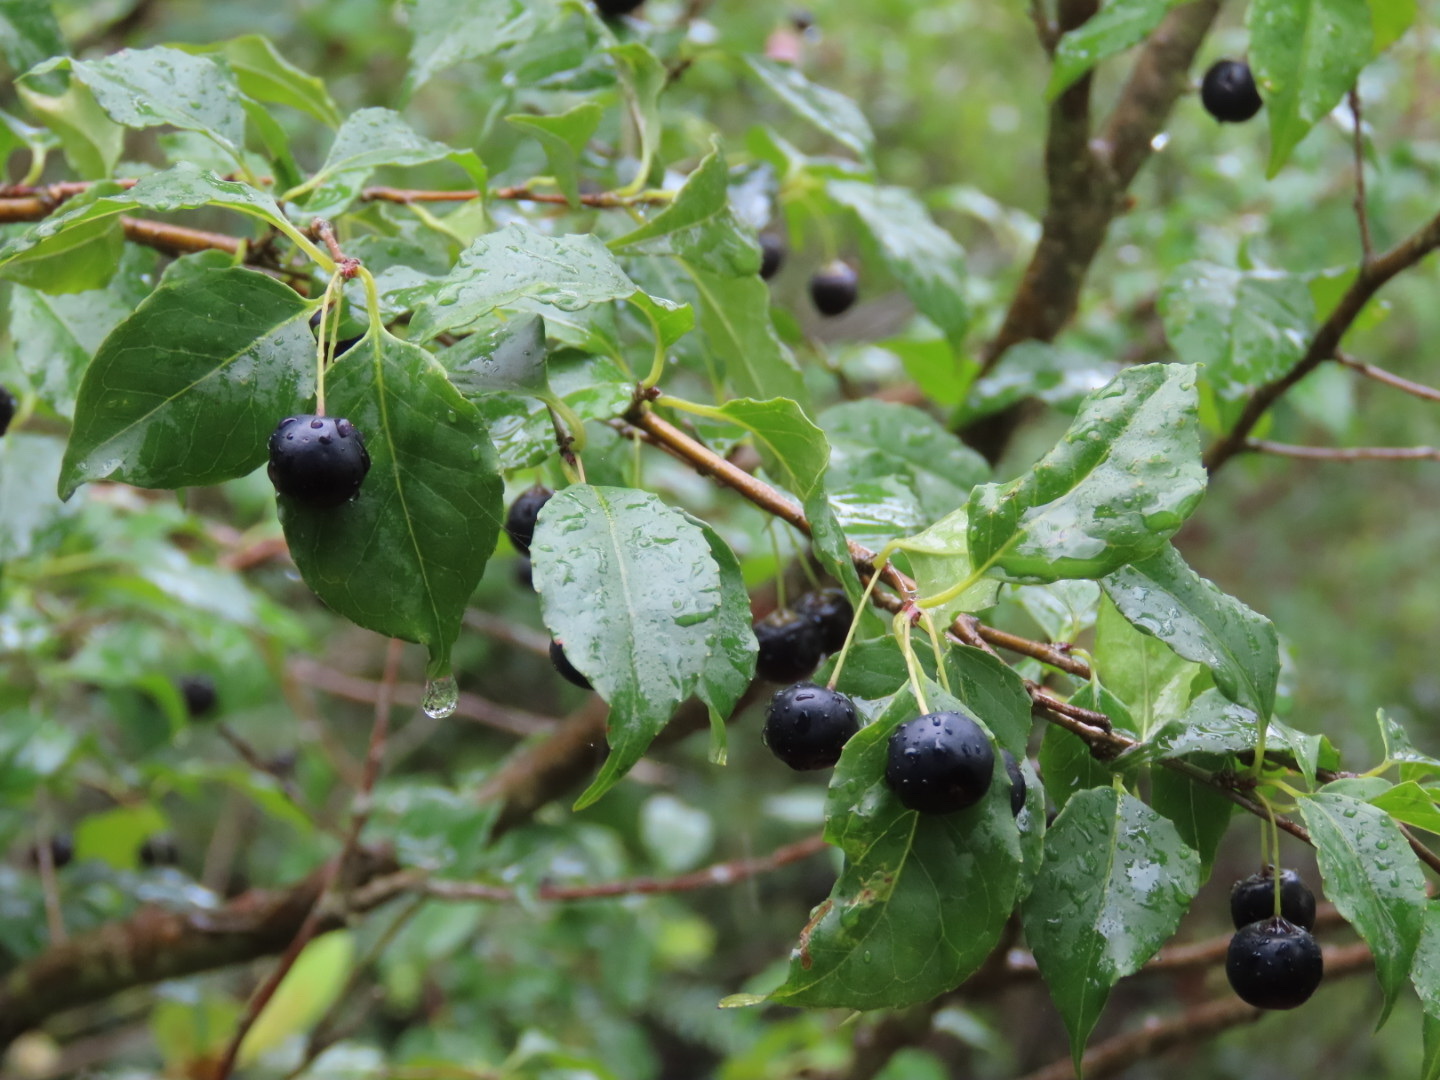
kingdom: Plantae
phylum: Tracheophyta
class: Magnoliopsida
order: Aquifoliales
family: Aquifoliaceae
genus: Ilex
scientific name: Ilex asprella
